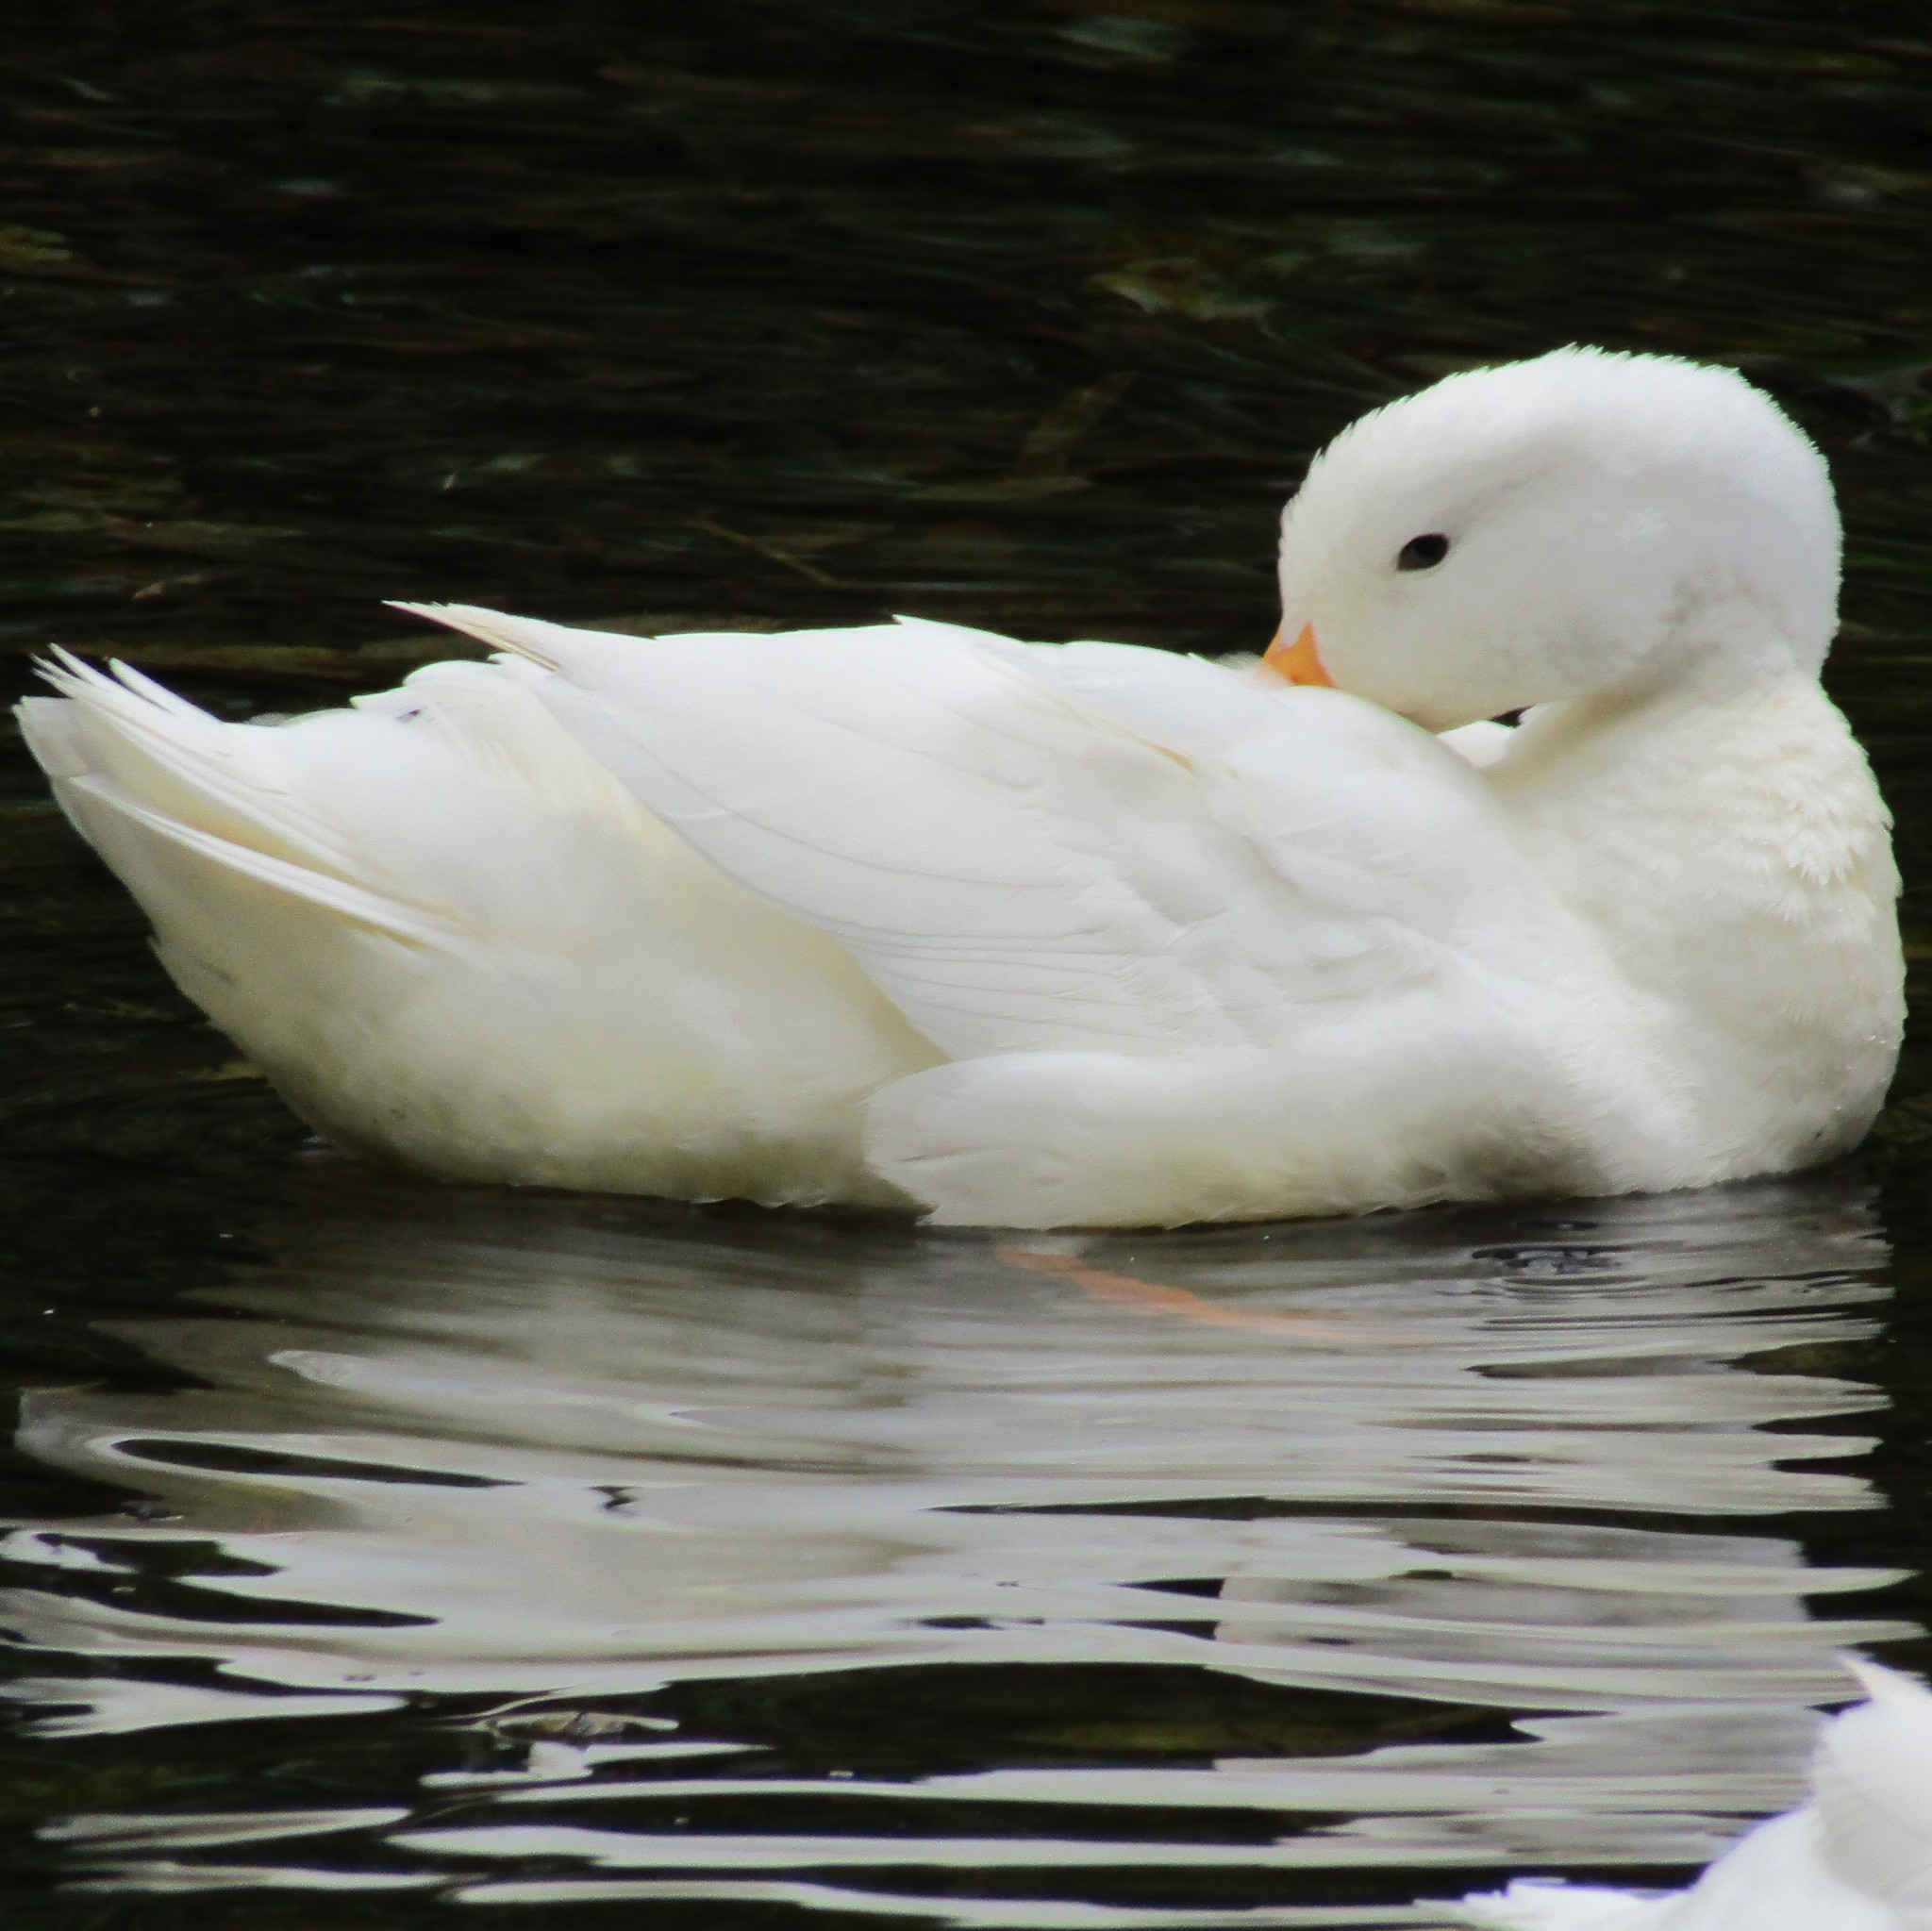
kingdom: Animalia
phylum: Chordata
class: Aves
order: Anseriformes
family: Anatidae
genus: Anas
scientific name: Anas platyrhynchos
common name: Mallard
